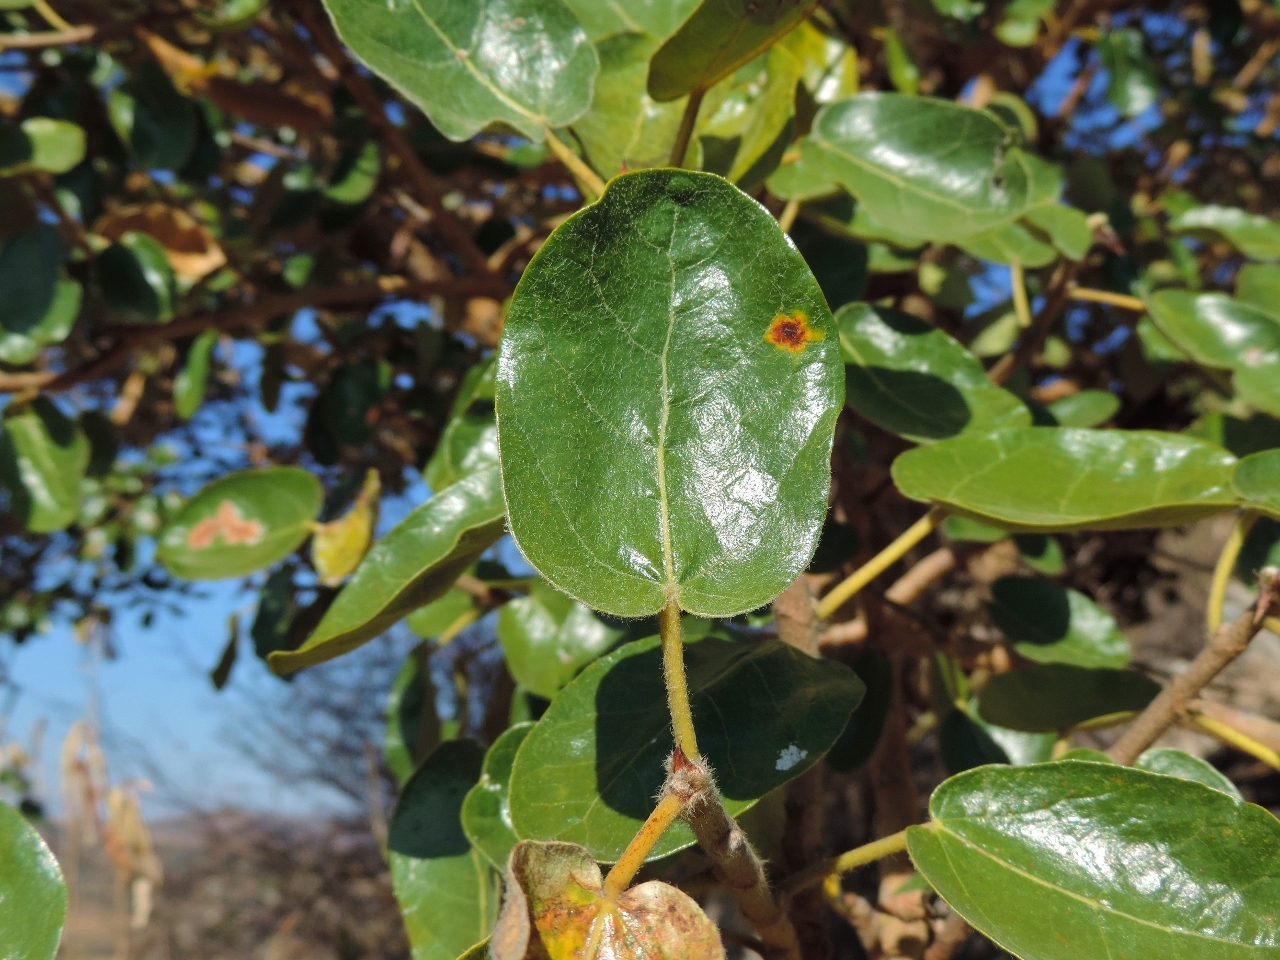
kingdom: Plantae
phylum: Tracheophyta
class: Magnoliopsida
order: Rosales
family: Moraceae
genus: Ficus
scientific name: Ficus glumosa
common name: Hairy rock fig
